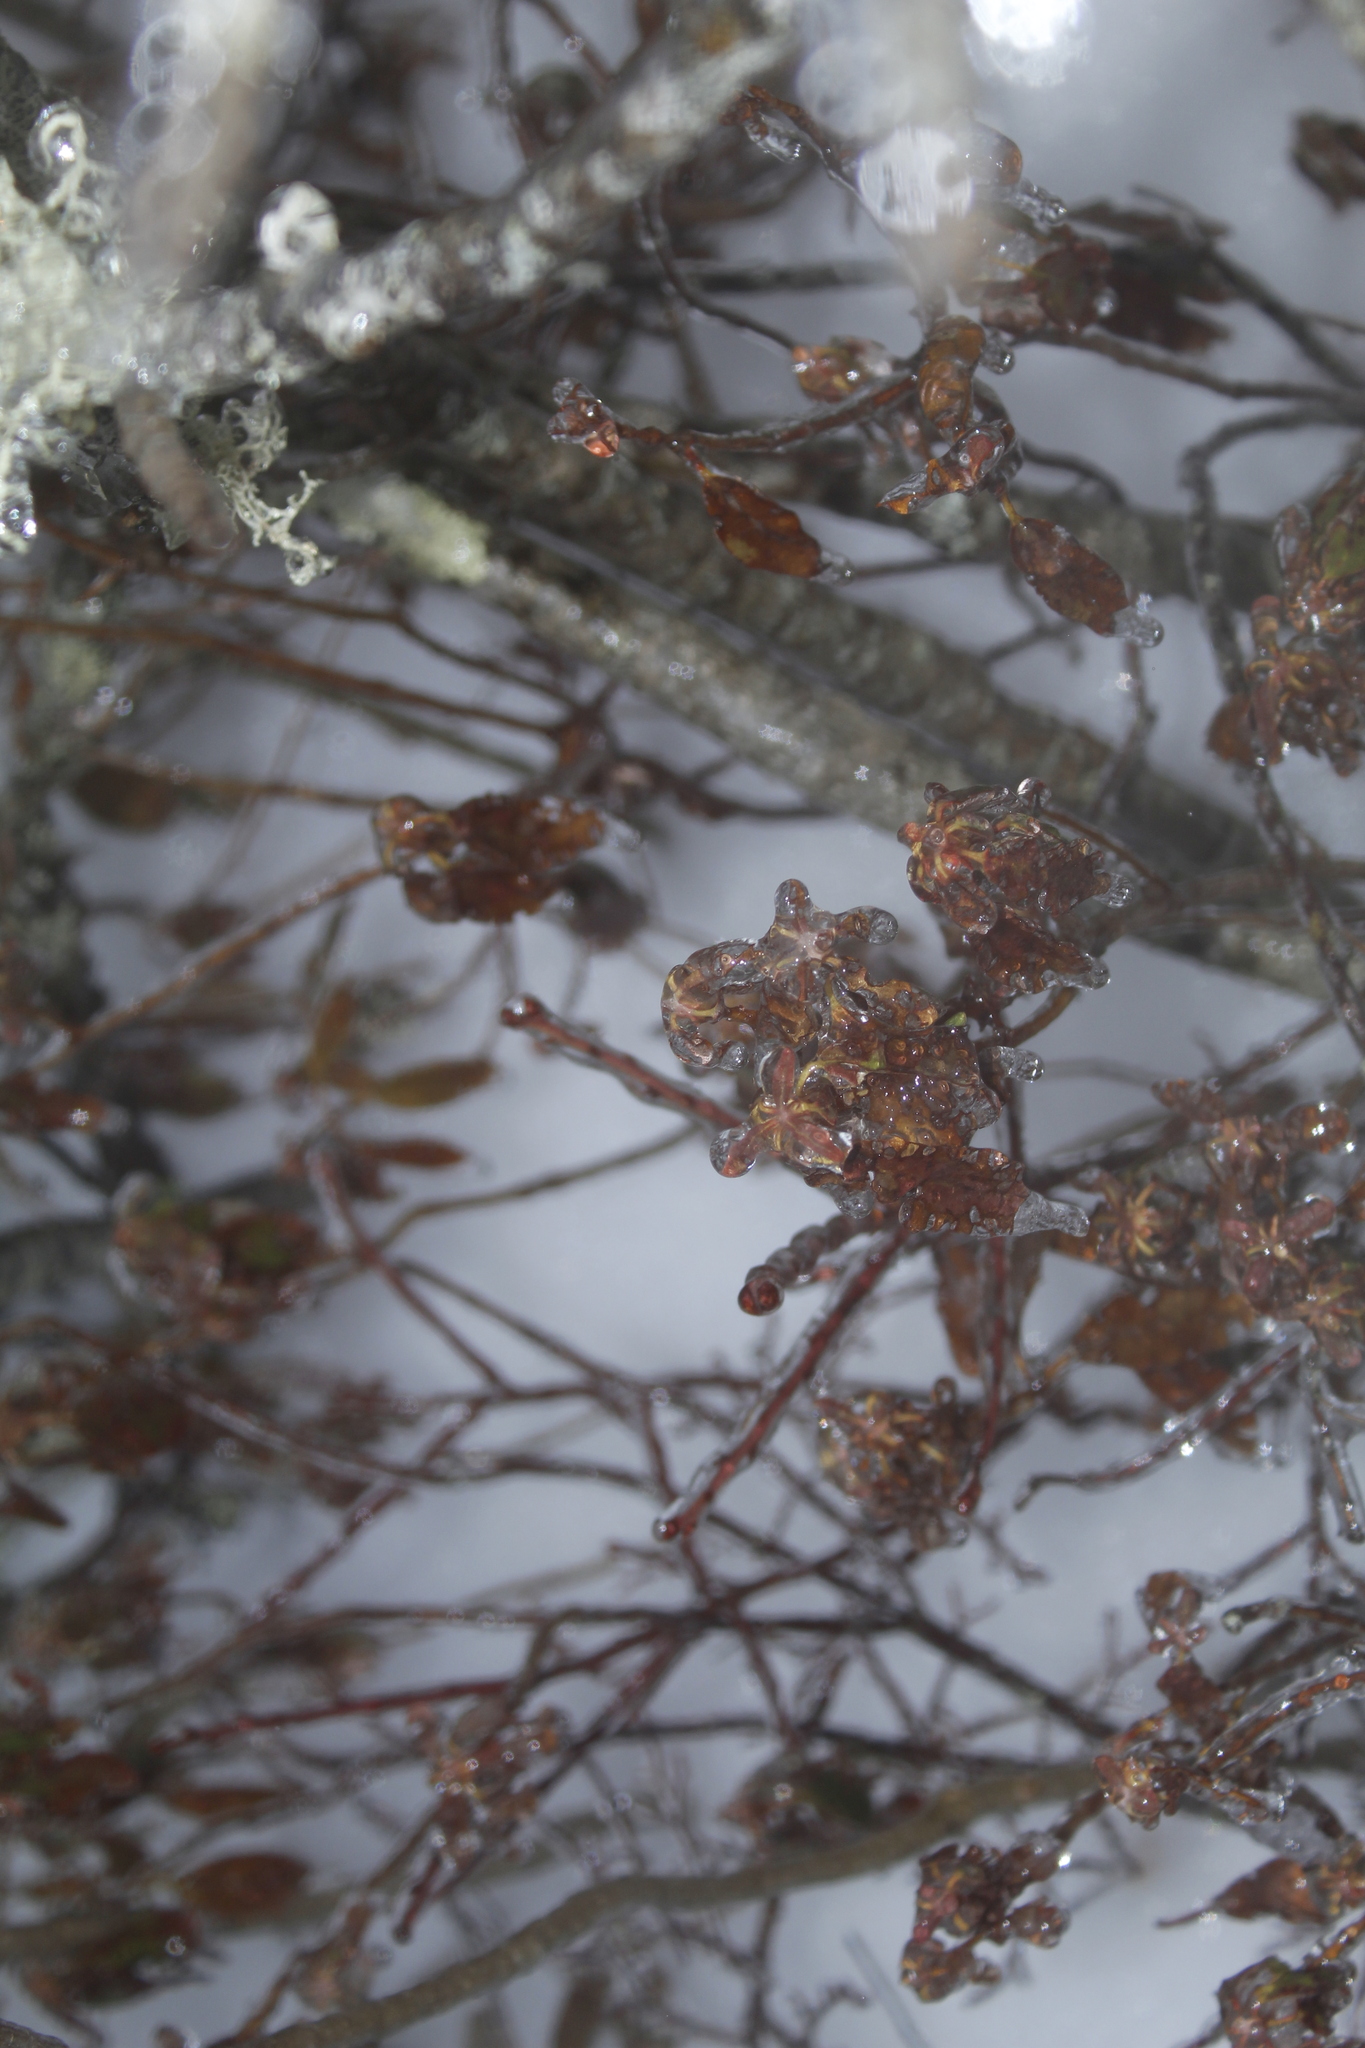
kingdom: Plantae
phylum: Tracheophyta
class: Magnoliopsida
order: Ericales
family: Ericaceae
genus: Kalmia
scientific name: Kalmia angustifolia
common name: Sheep-laurel
